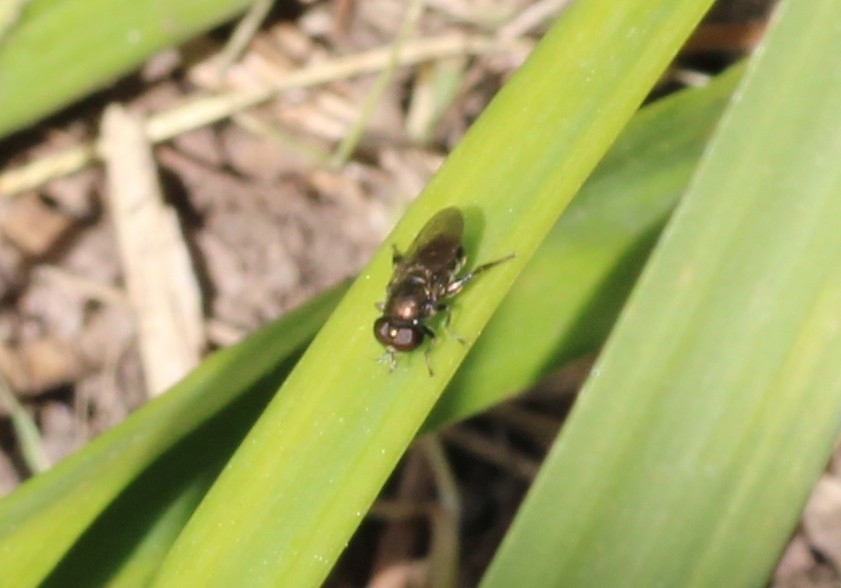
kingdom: Animalia
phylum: Arthropoda
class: Insecta
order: Diptera
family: Syrphidae
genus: Eumerus
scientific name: Eumerus
